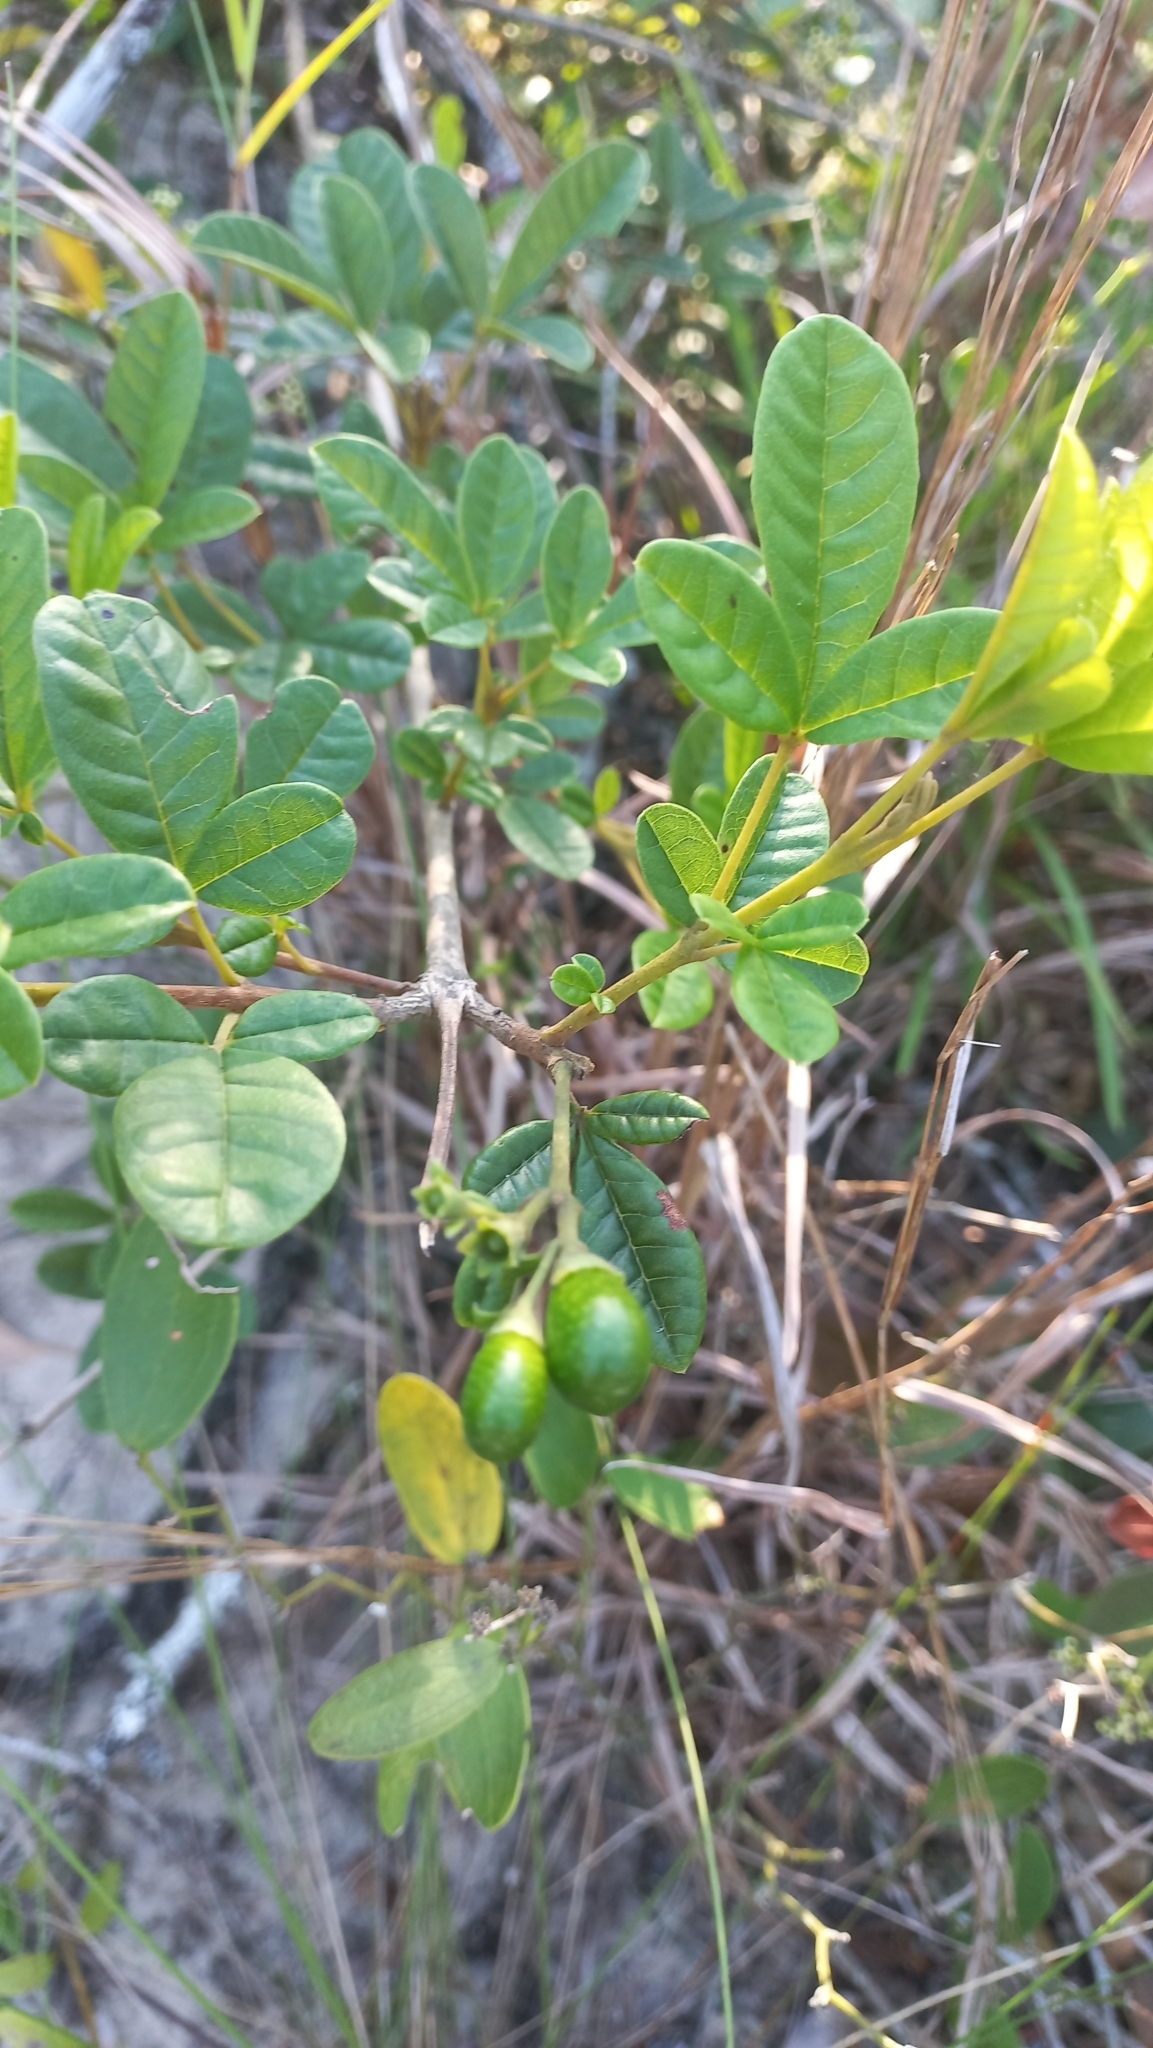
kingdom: Plantae
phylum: Tracheophyta
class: Magnoliopsida
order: Lamiales
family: Lamiaceae
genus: Vitex
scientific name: Vitex megapotamica
